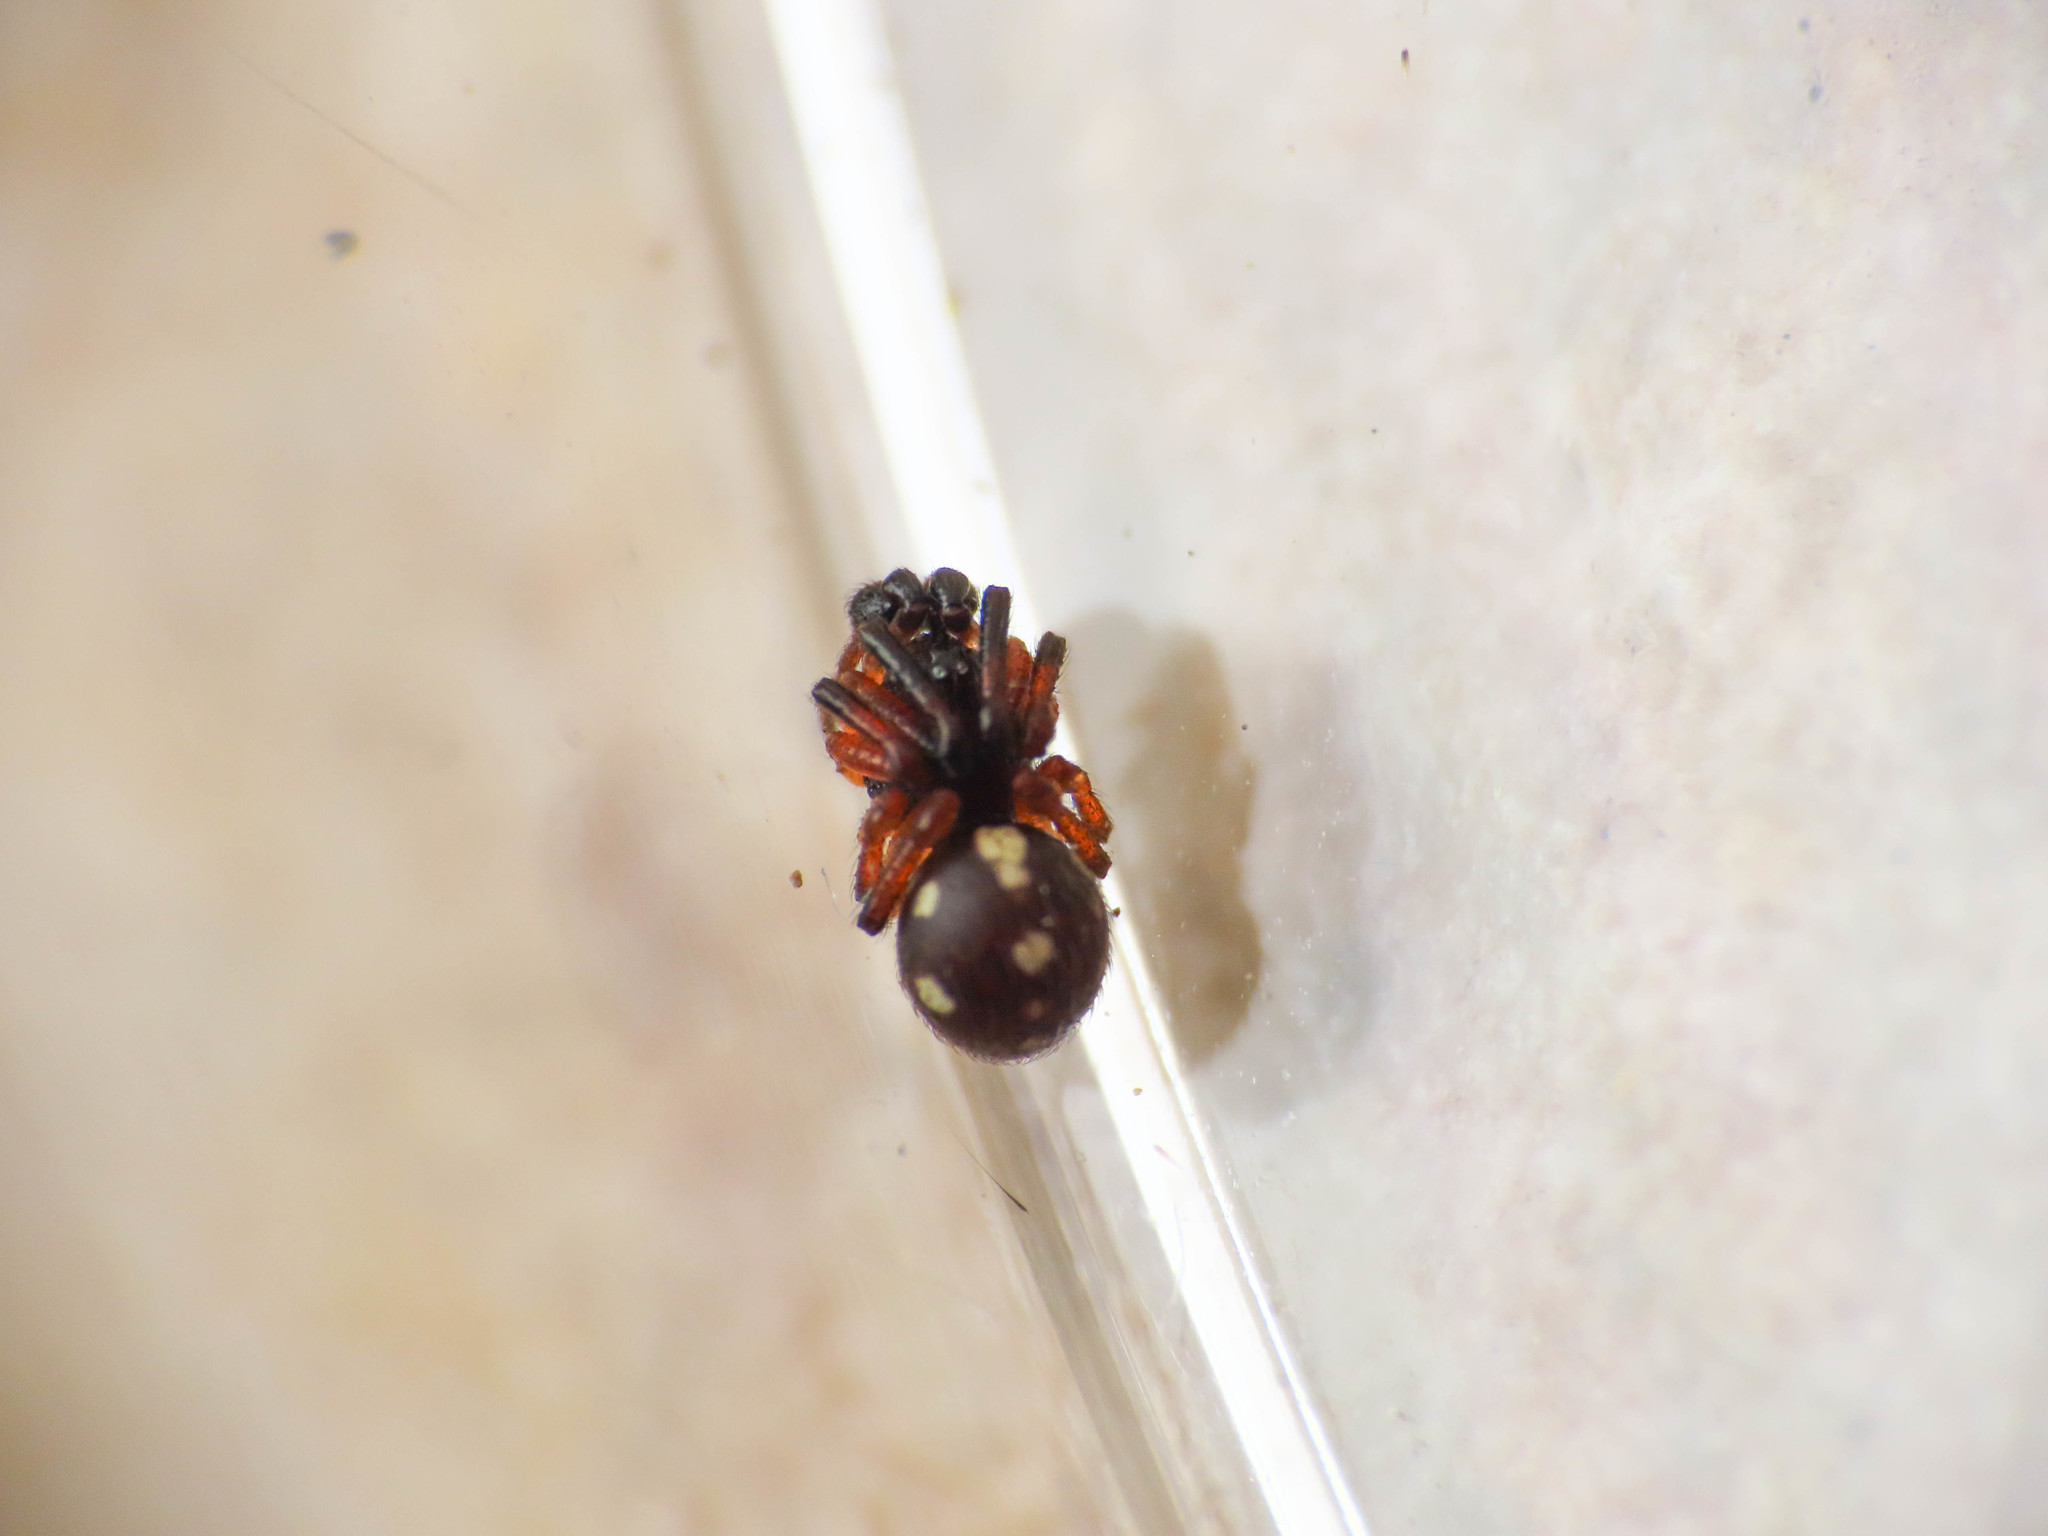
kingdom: Animalia
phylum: Arthropoda
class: Arachnida
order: Araneae
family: Theridiidae
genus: Crustulina
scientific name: Crustulina guttata
